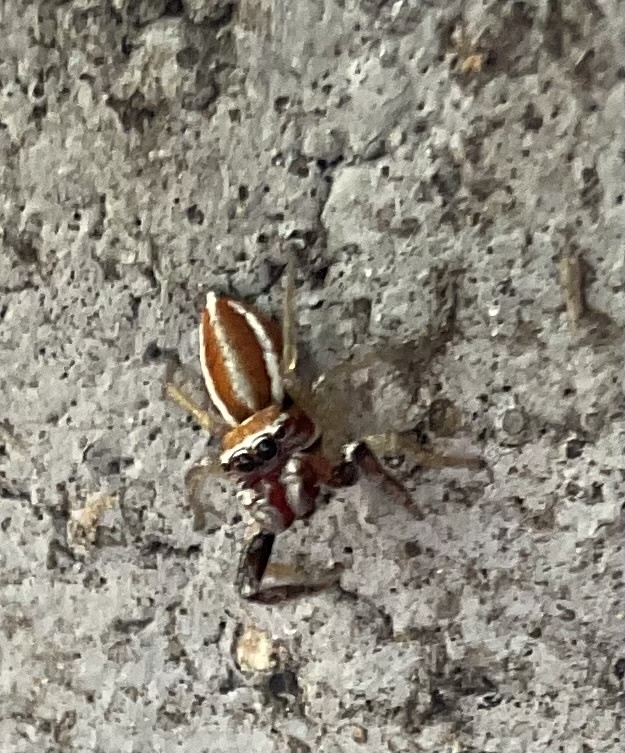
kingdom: Animalia
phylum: Arthropoda
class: Arachnida
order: Araneae
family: Salticidae
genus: Icius
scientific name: Icius hamatus
